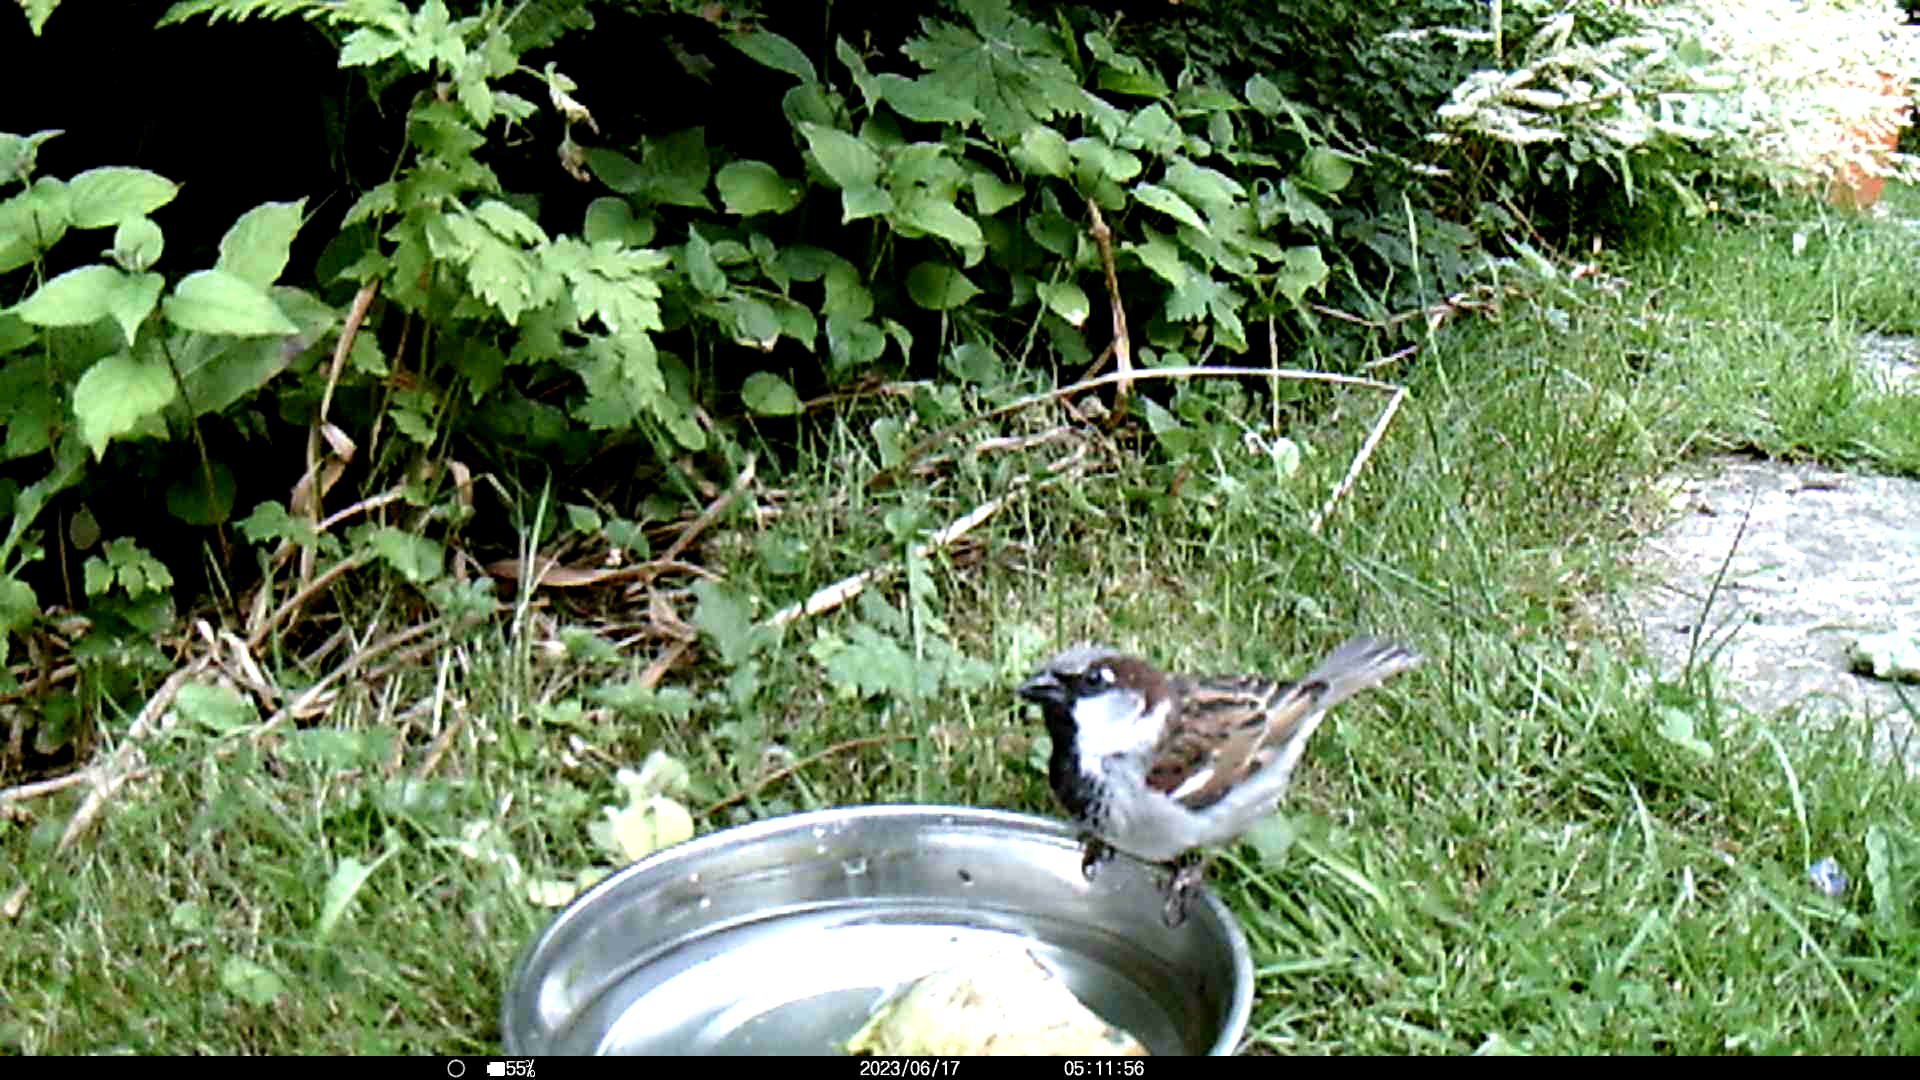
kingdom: Animalia
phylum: Chordata
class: Aves
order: Passeriformes
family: Passeridae
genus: Passer
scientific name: Passer domesticus
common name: House sparrow
